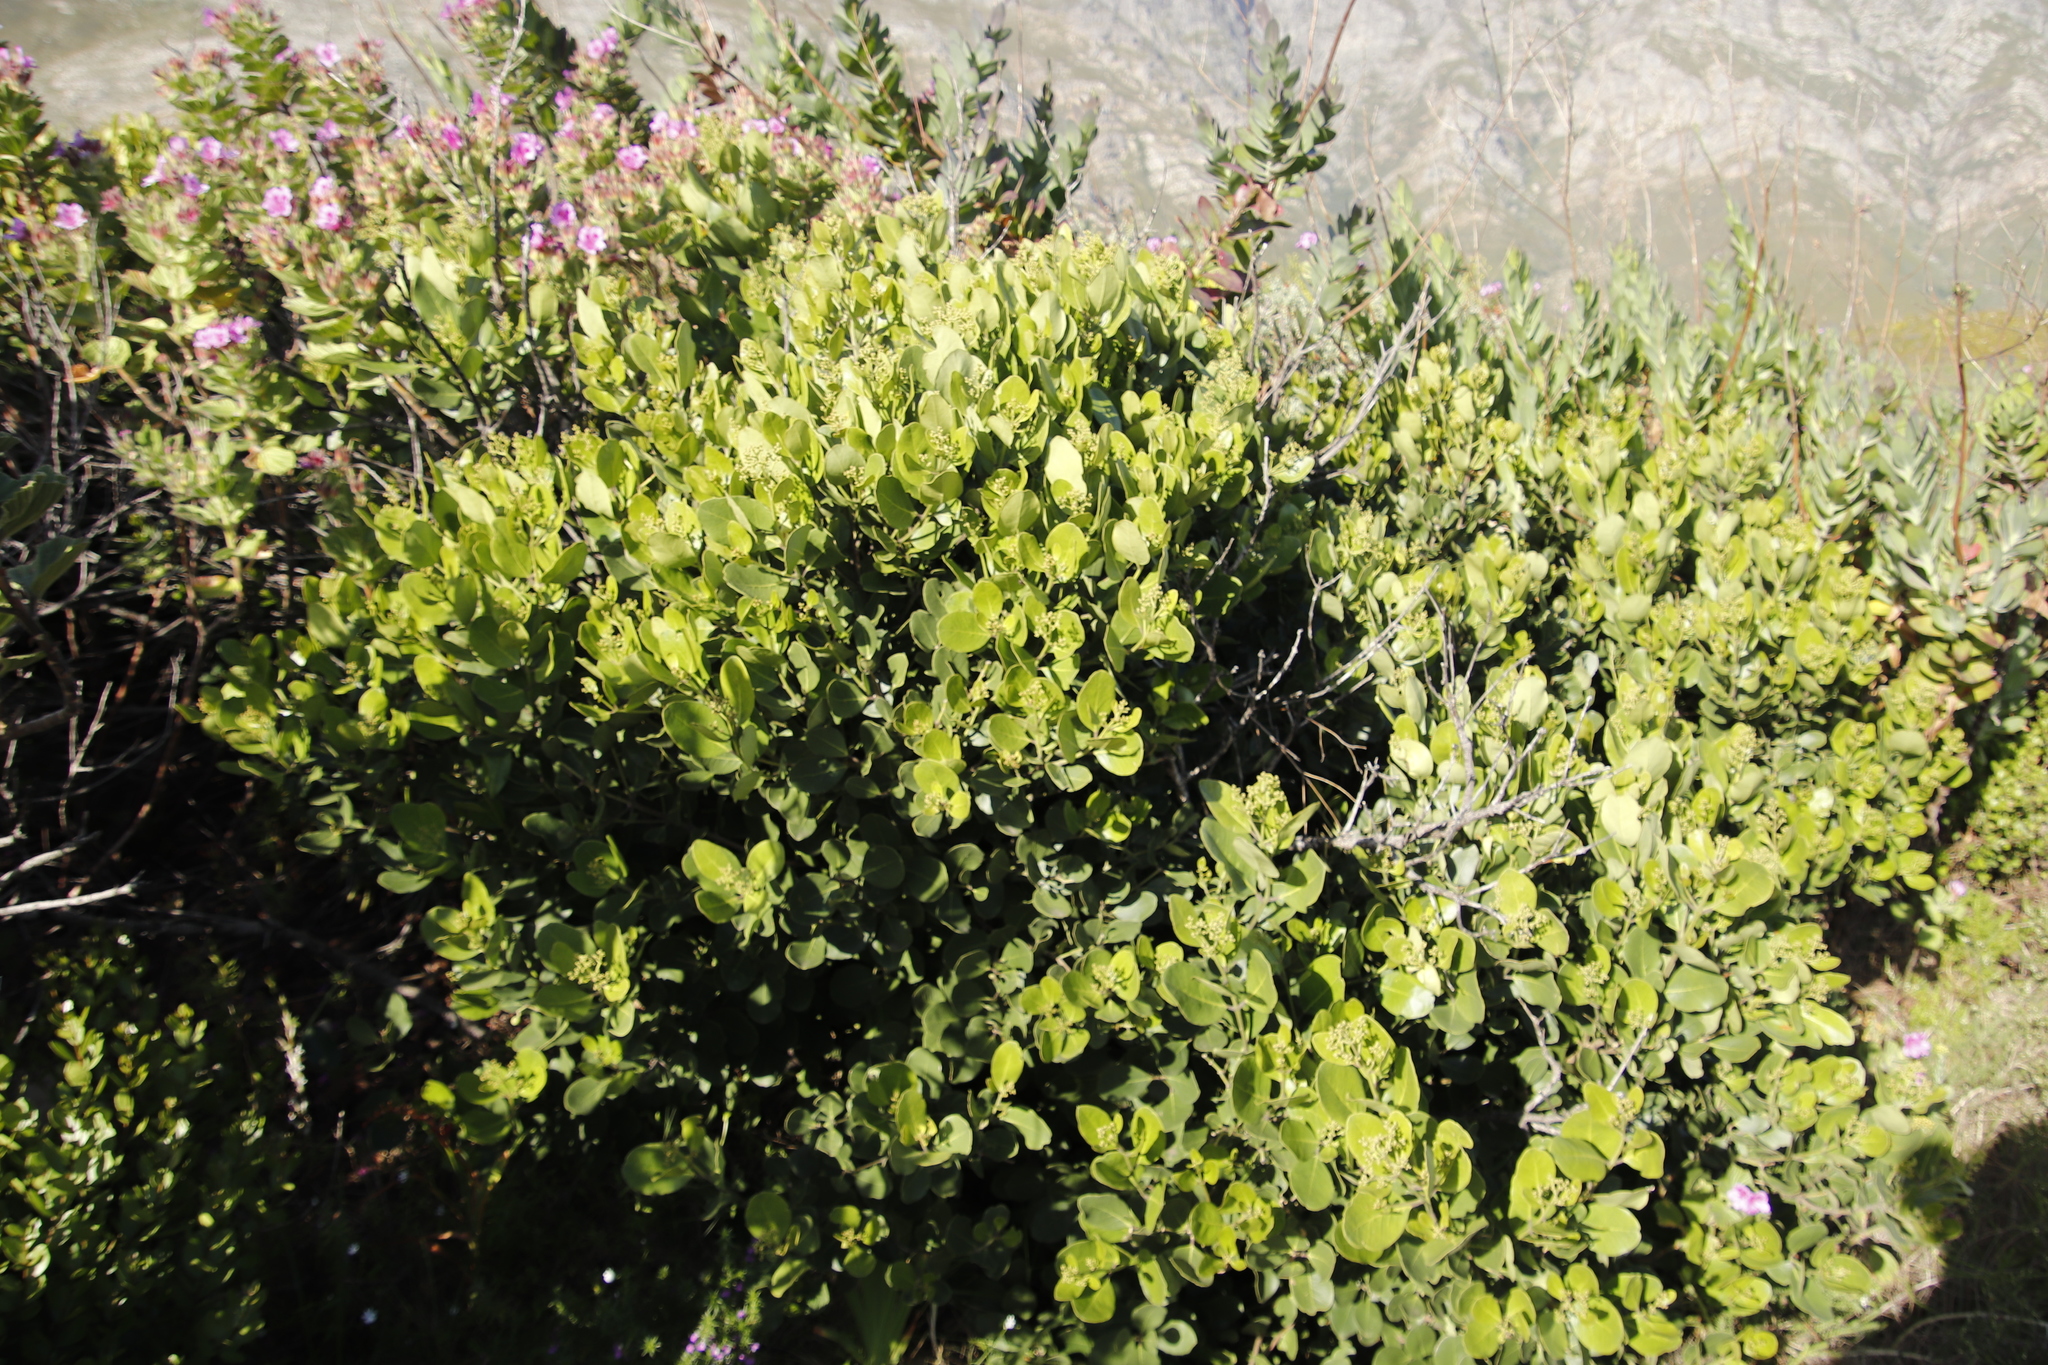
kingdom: Plantae
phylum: Tracheophyta
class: Magnoliopsida
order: Lamiales
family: Oleaceae
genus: Olea
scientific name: Olea capensis
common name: Black ironwood
